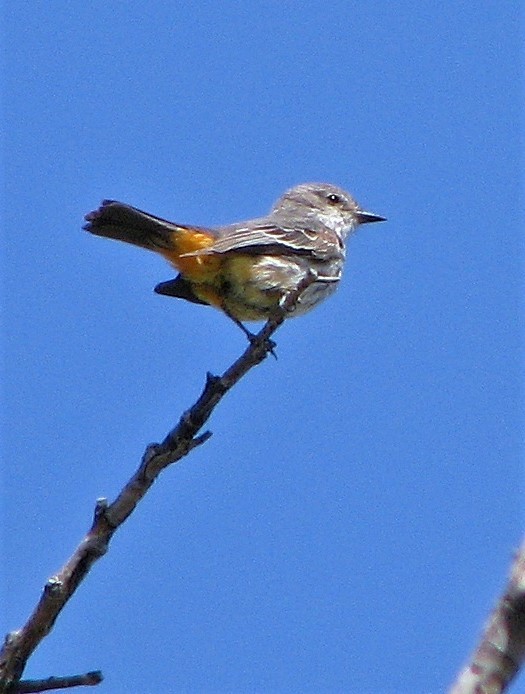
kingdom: Animalia
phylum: Chordata
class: Aves
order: Passeriformes
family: Tyrannidae
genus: Pyrocephalus
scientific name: Pyrocephalus rubinus
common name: Vermilion flycatcher
